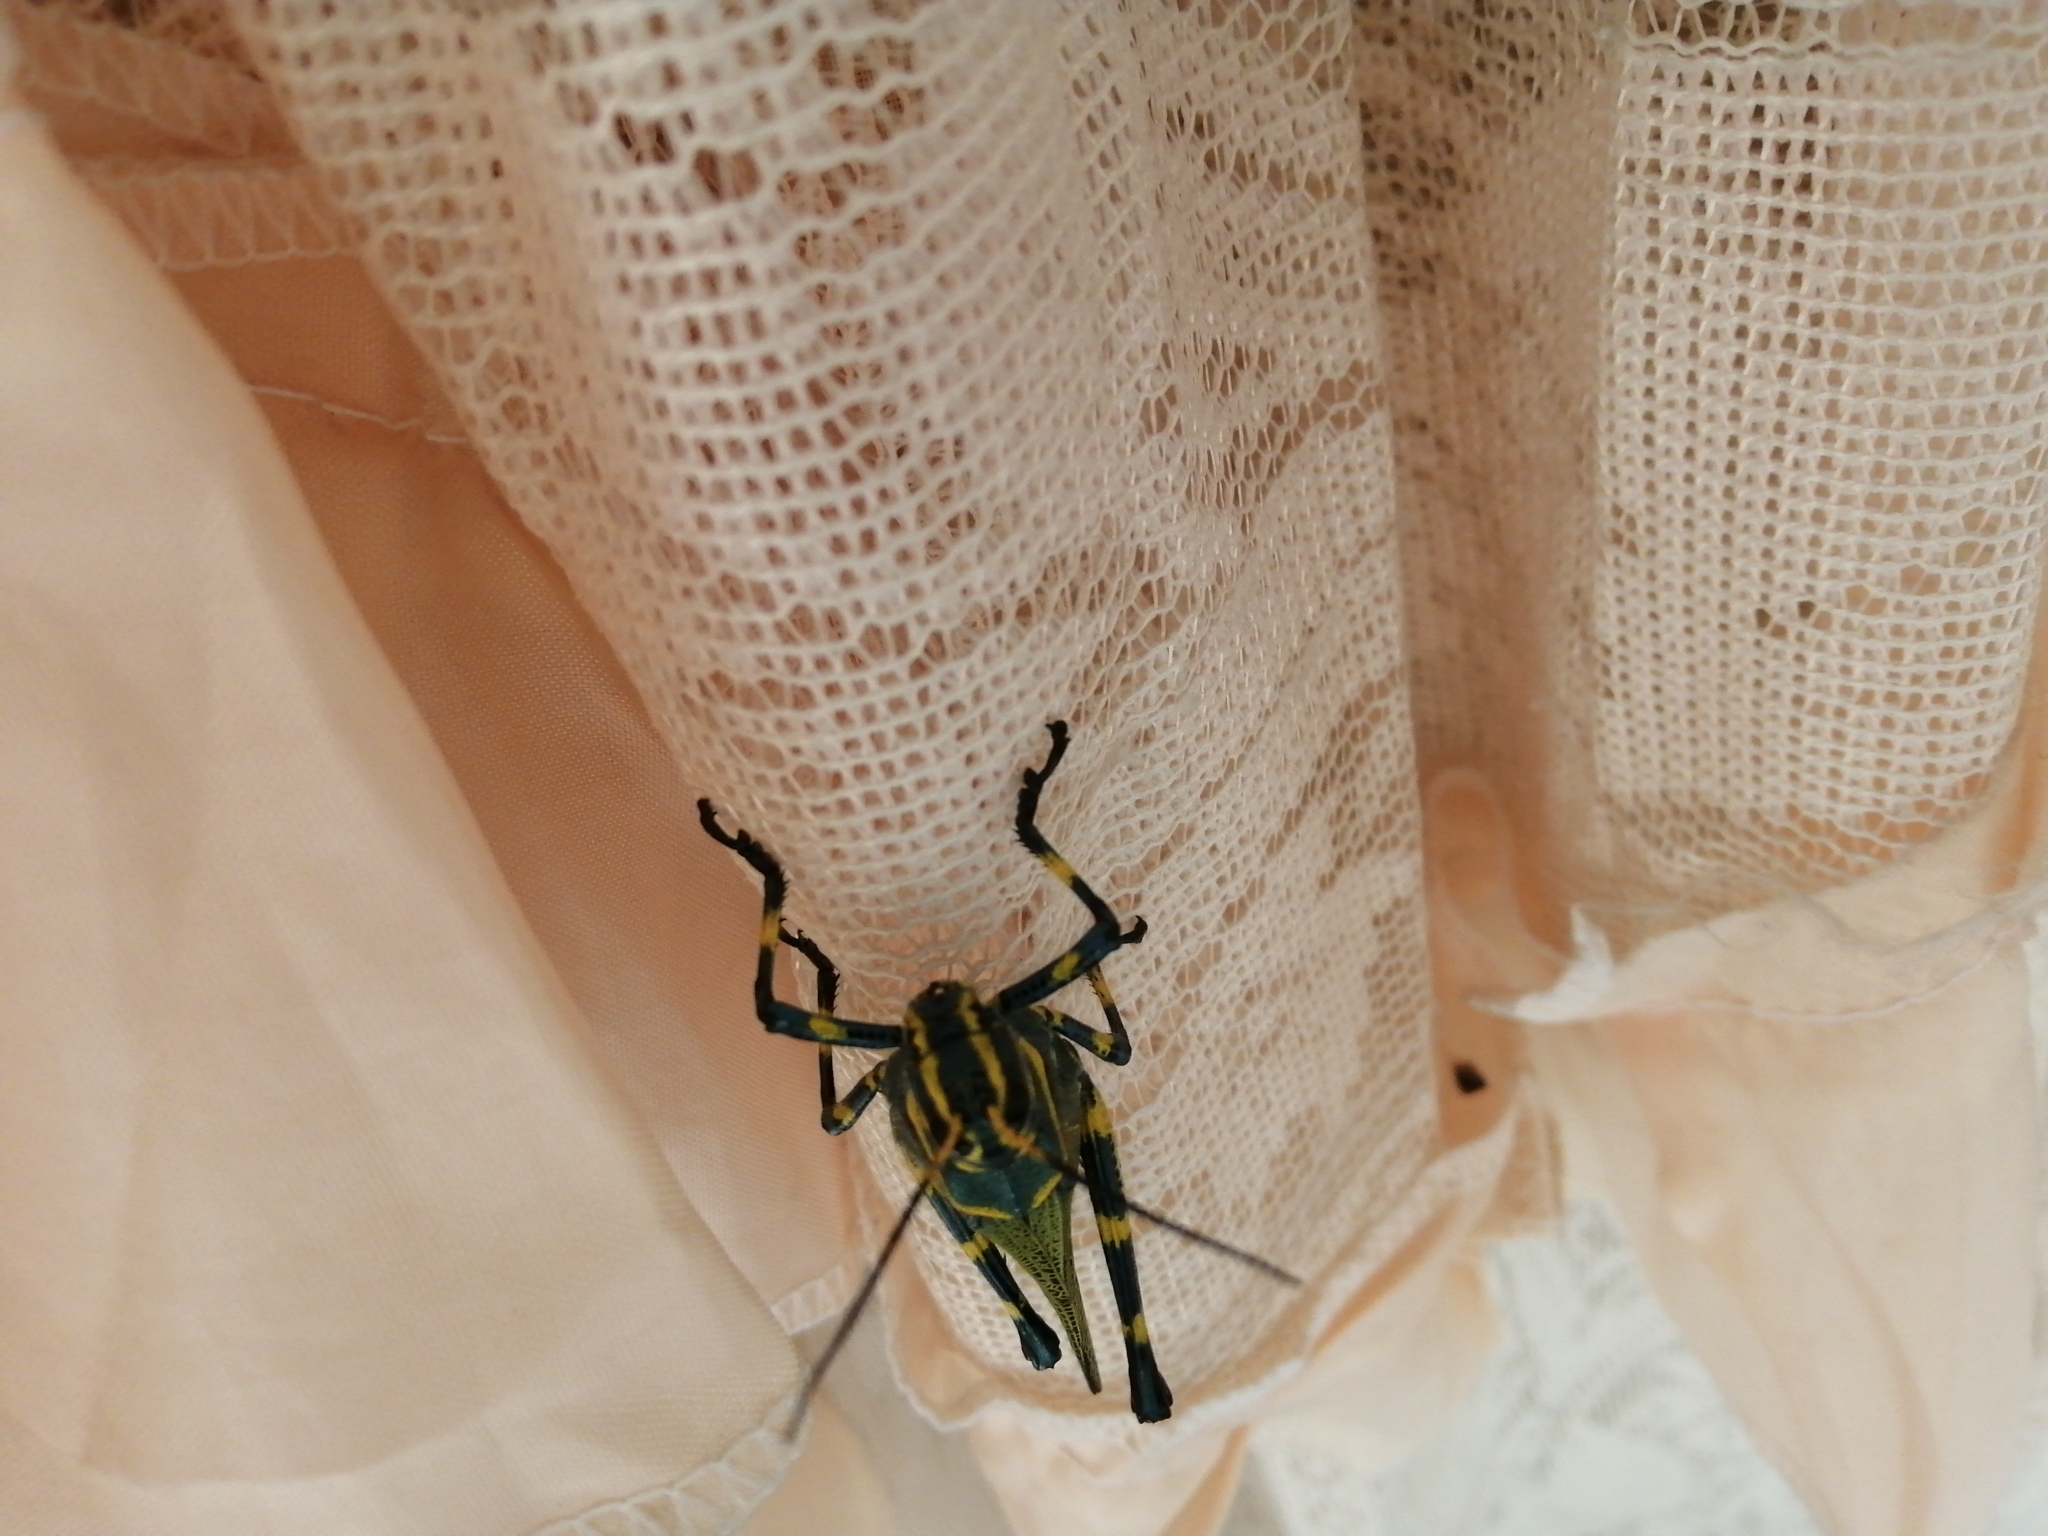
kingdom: Animalia
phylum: Arthropoda
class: Insecta
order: Orthoptera
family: Romaleidae
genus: Chromacris
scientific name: Chromacris colorata
